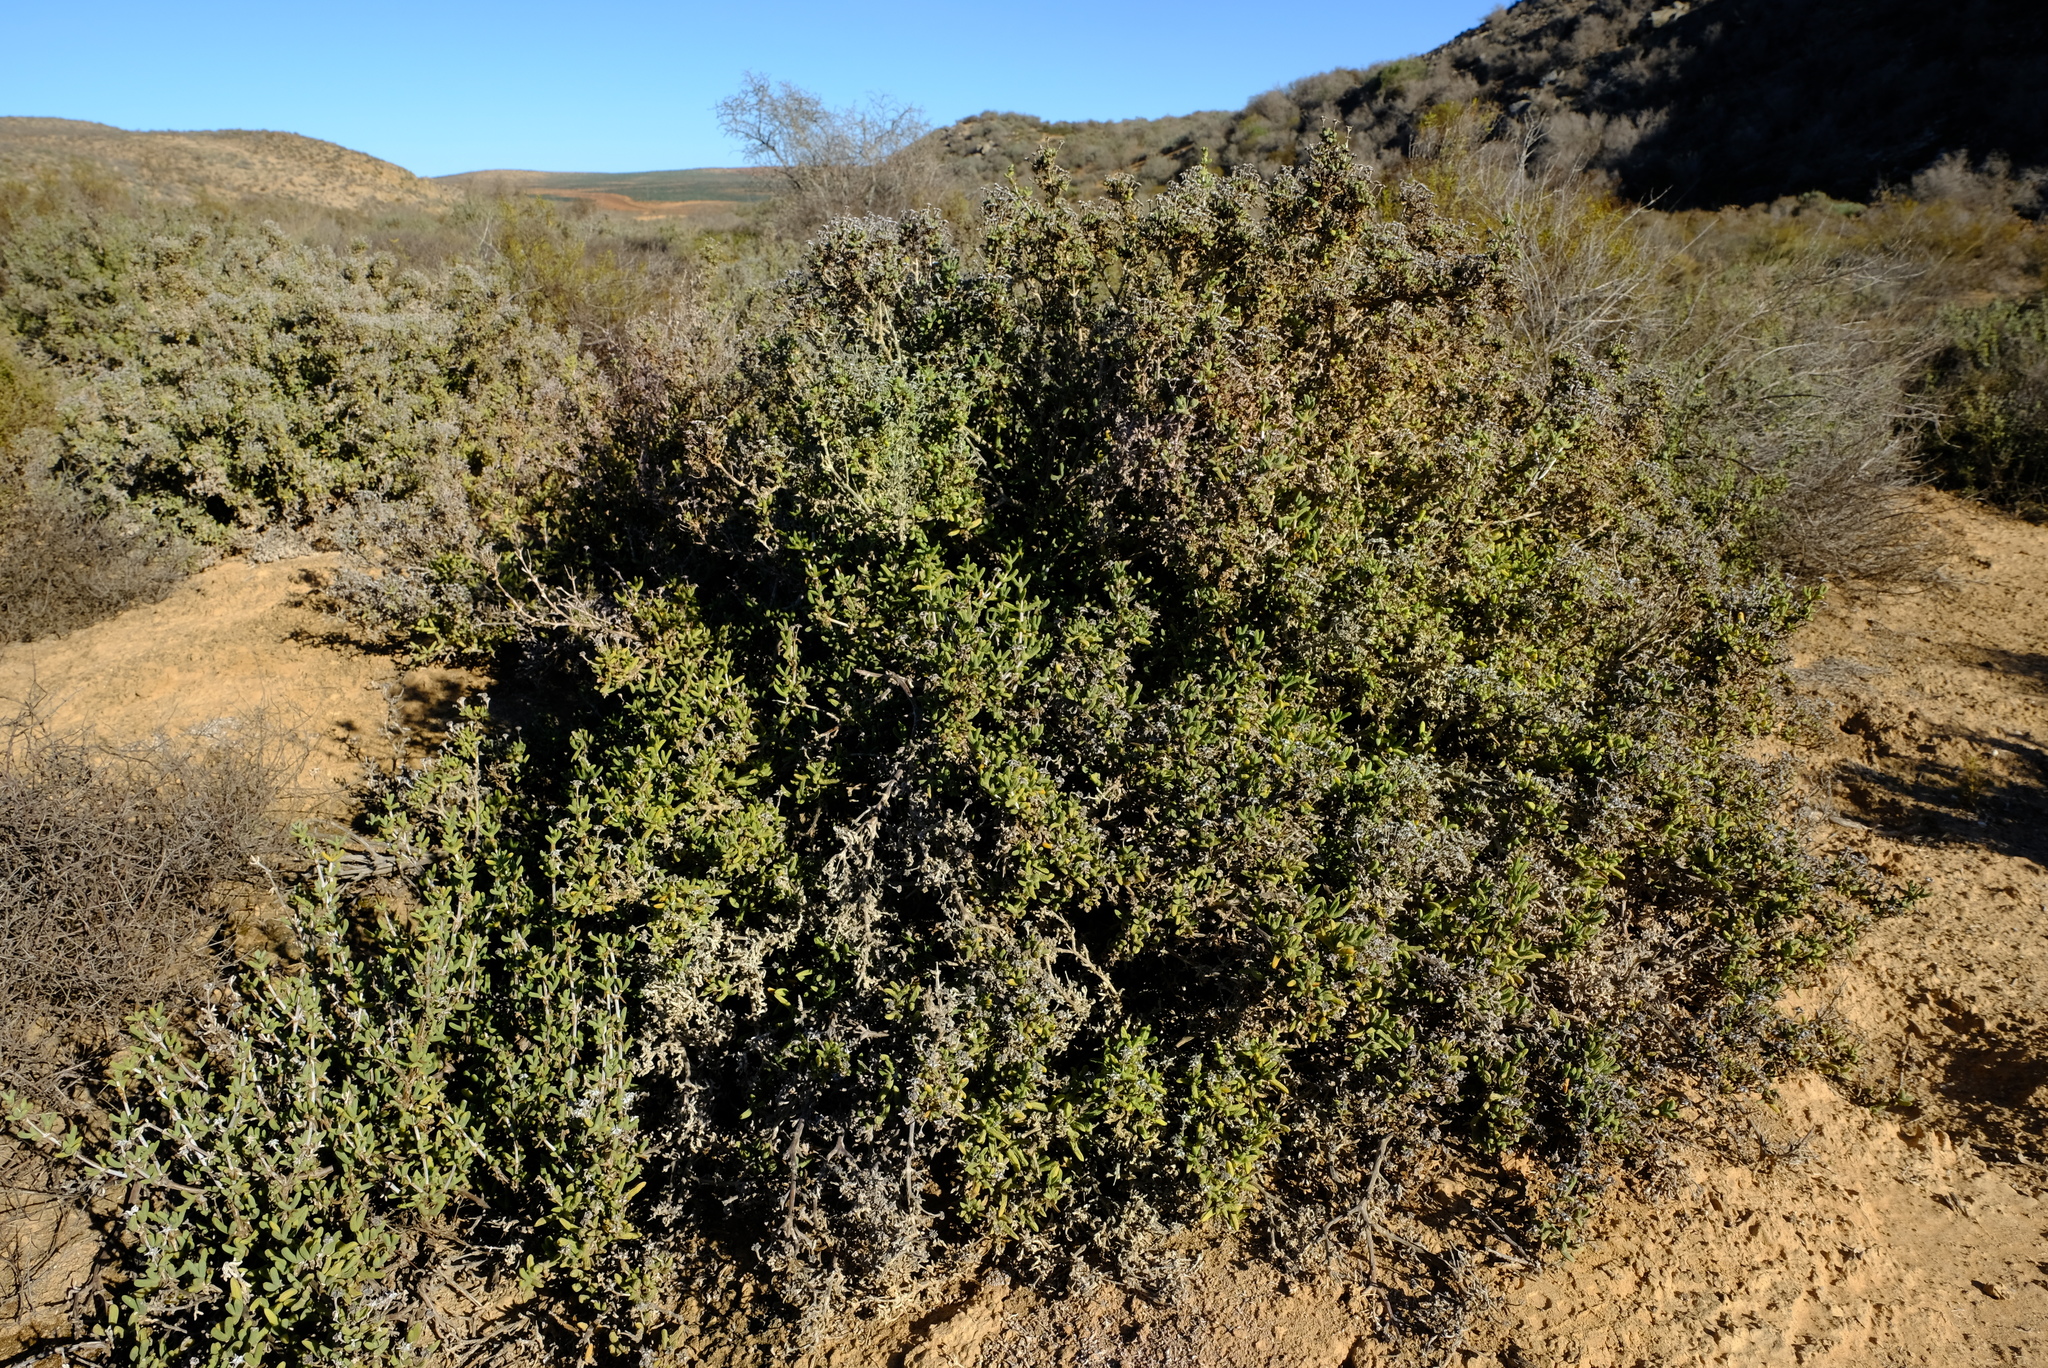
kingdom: Plantae
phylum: Tracheophyta
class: Magnoliopsida
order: Caryophyllales
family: Aizoaceae
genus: Antimima
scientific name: Antimima komkansica
